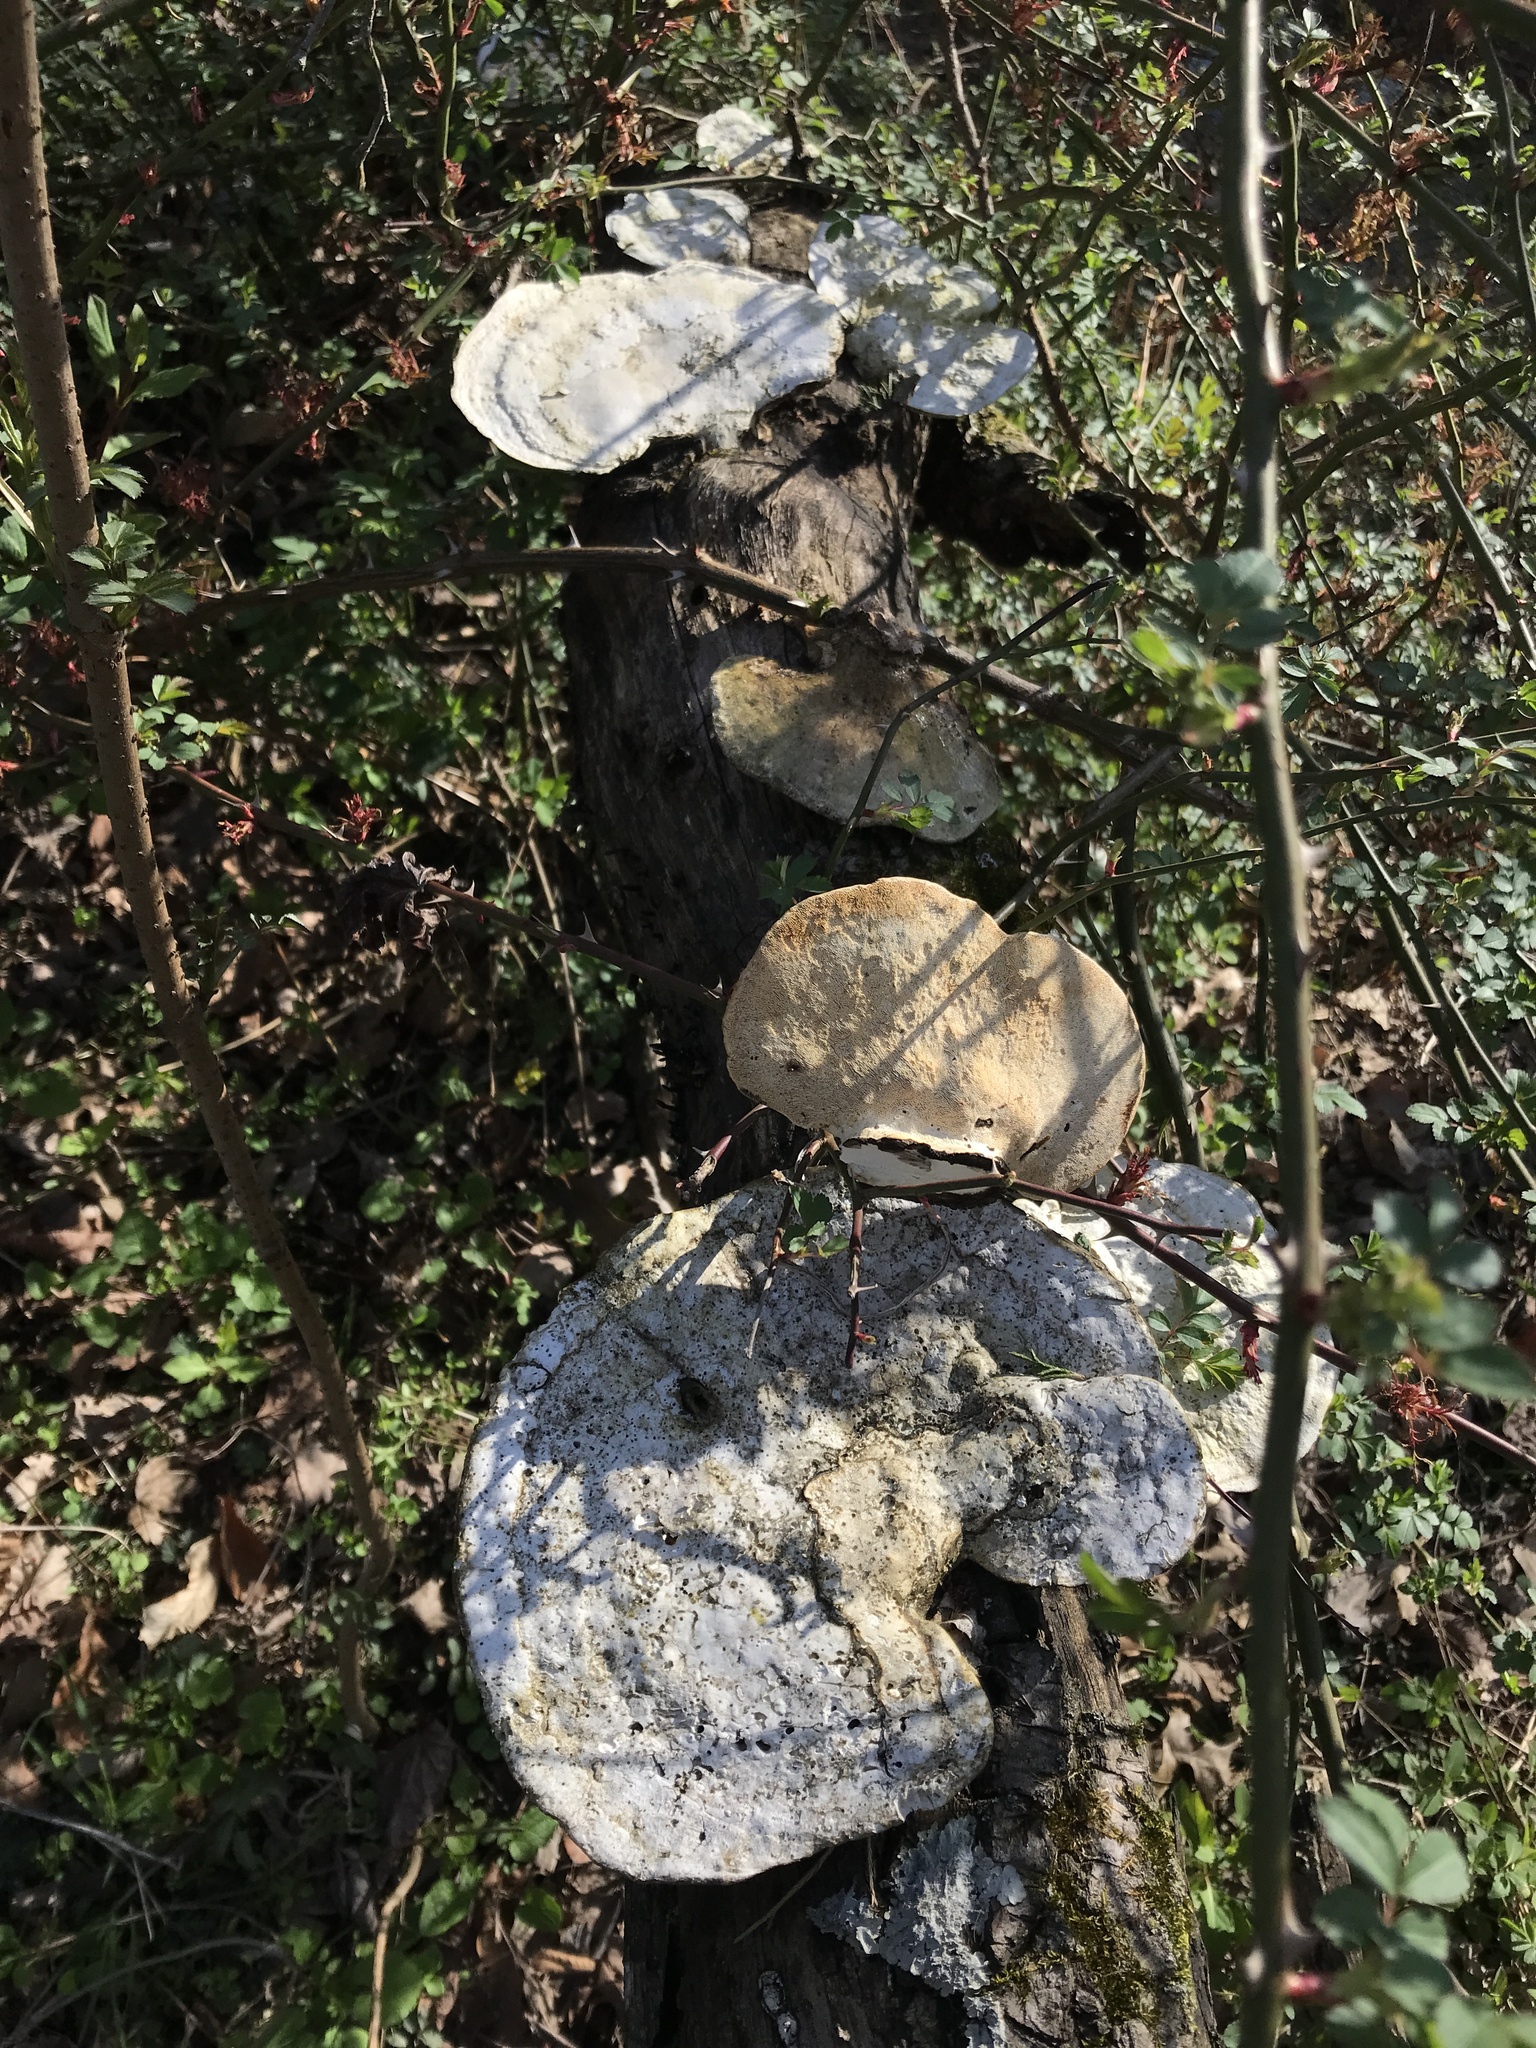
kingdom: Fungi
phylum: Basidiomycota
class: Agaricomycetes
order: Polyporales
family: Polyporaceae
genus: Trametes
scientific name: Trametes
